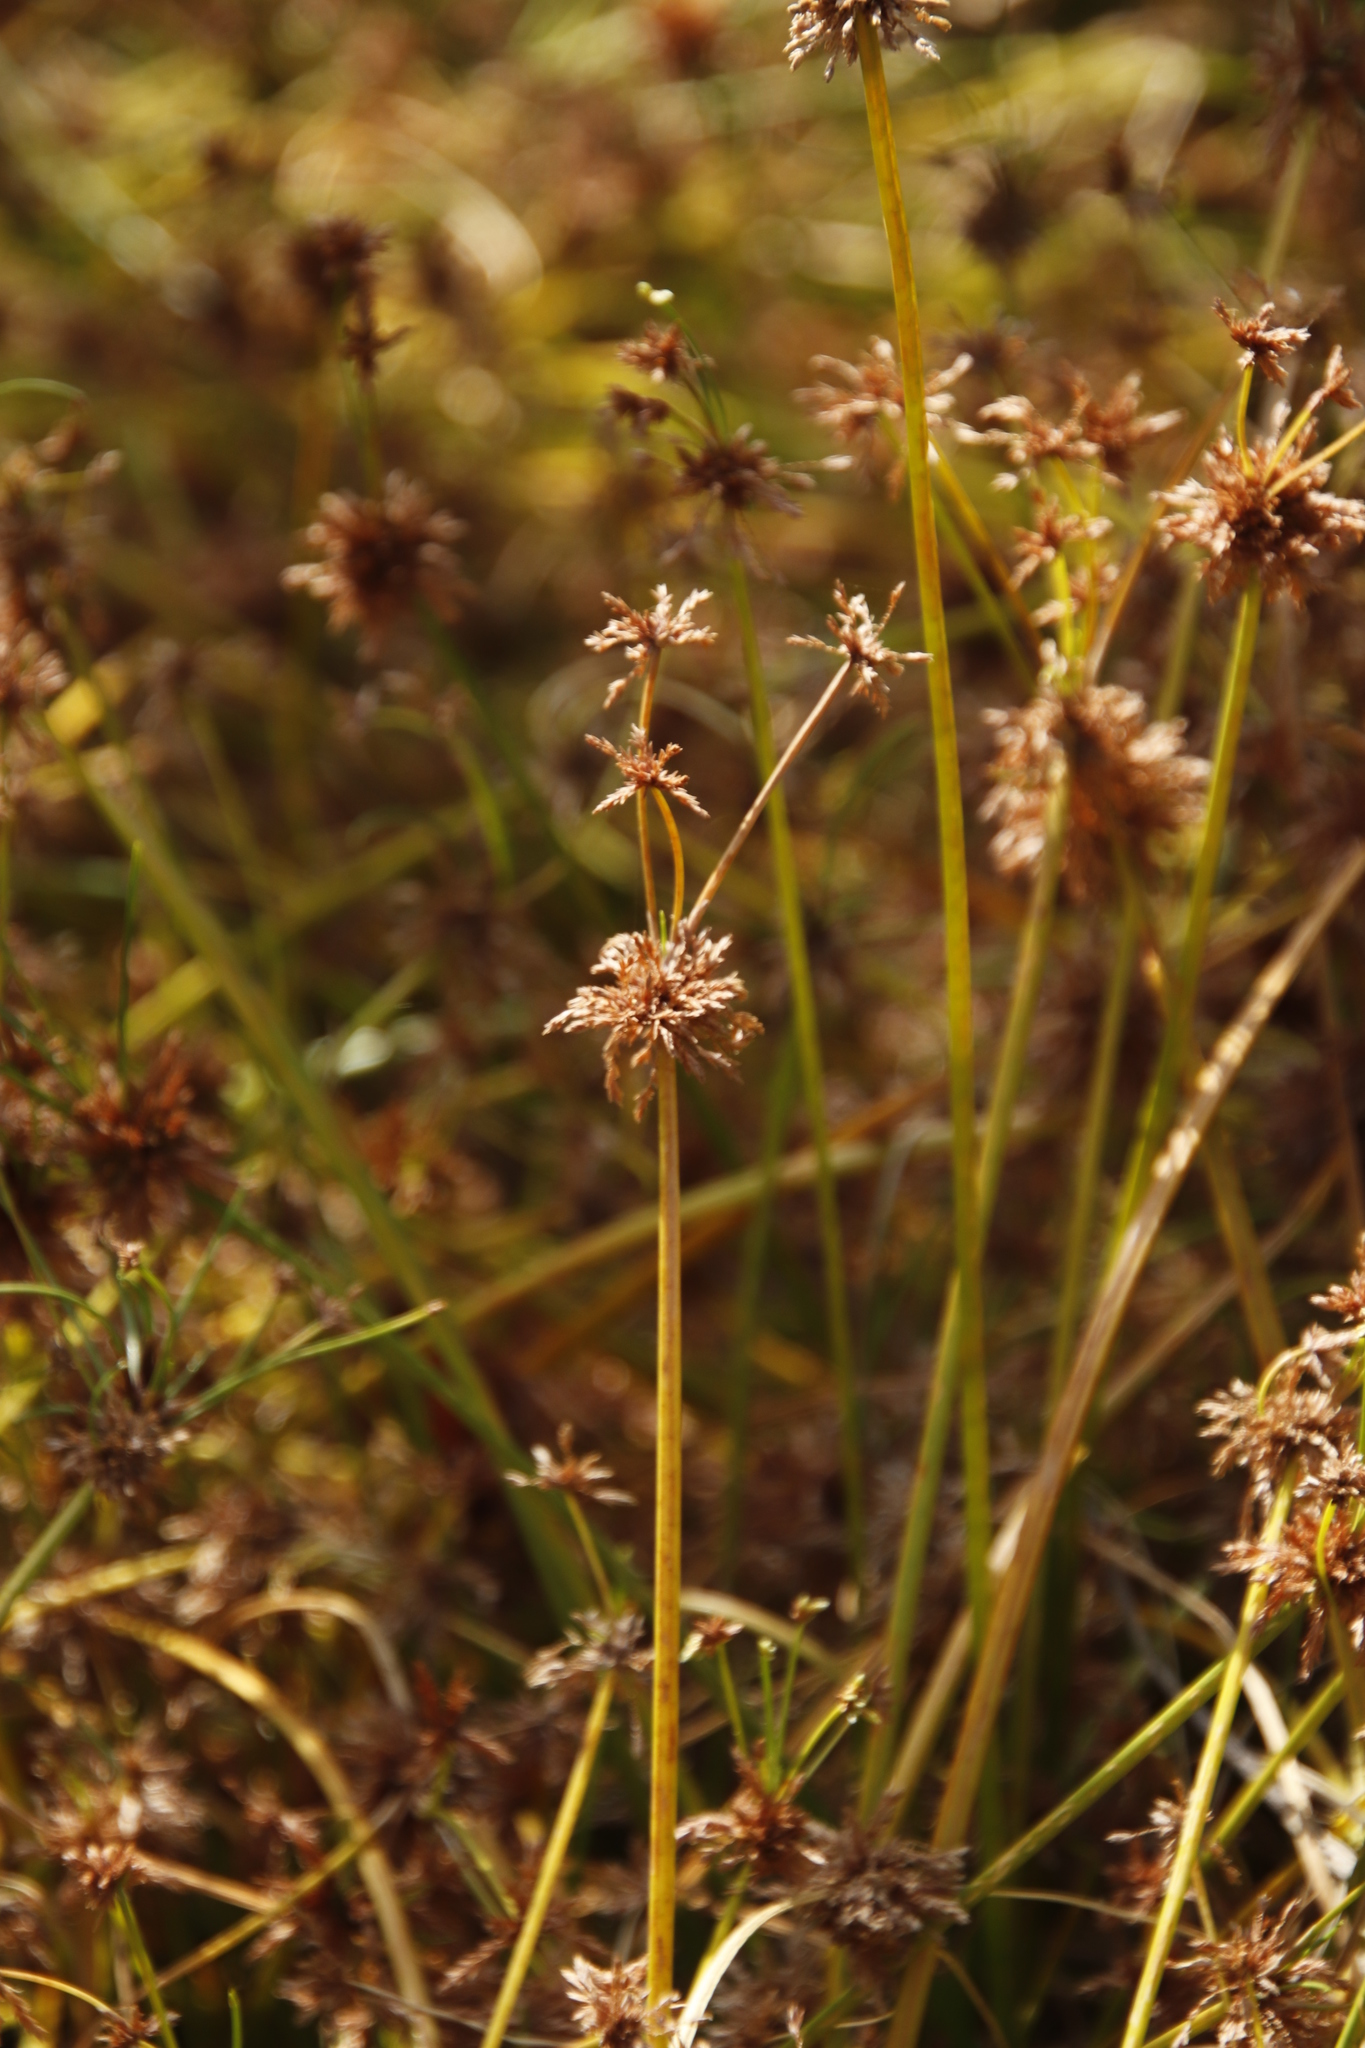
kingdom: Plantae
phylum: Tracheophyta
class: Liliopsida
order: Poales
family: Cyperaceae
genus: Cyperus
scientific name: Cyperus sphaerospermus
